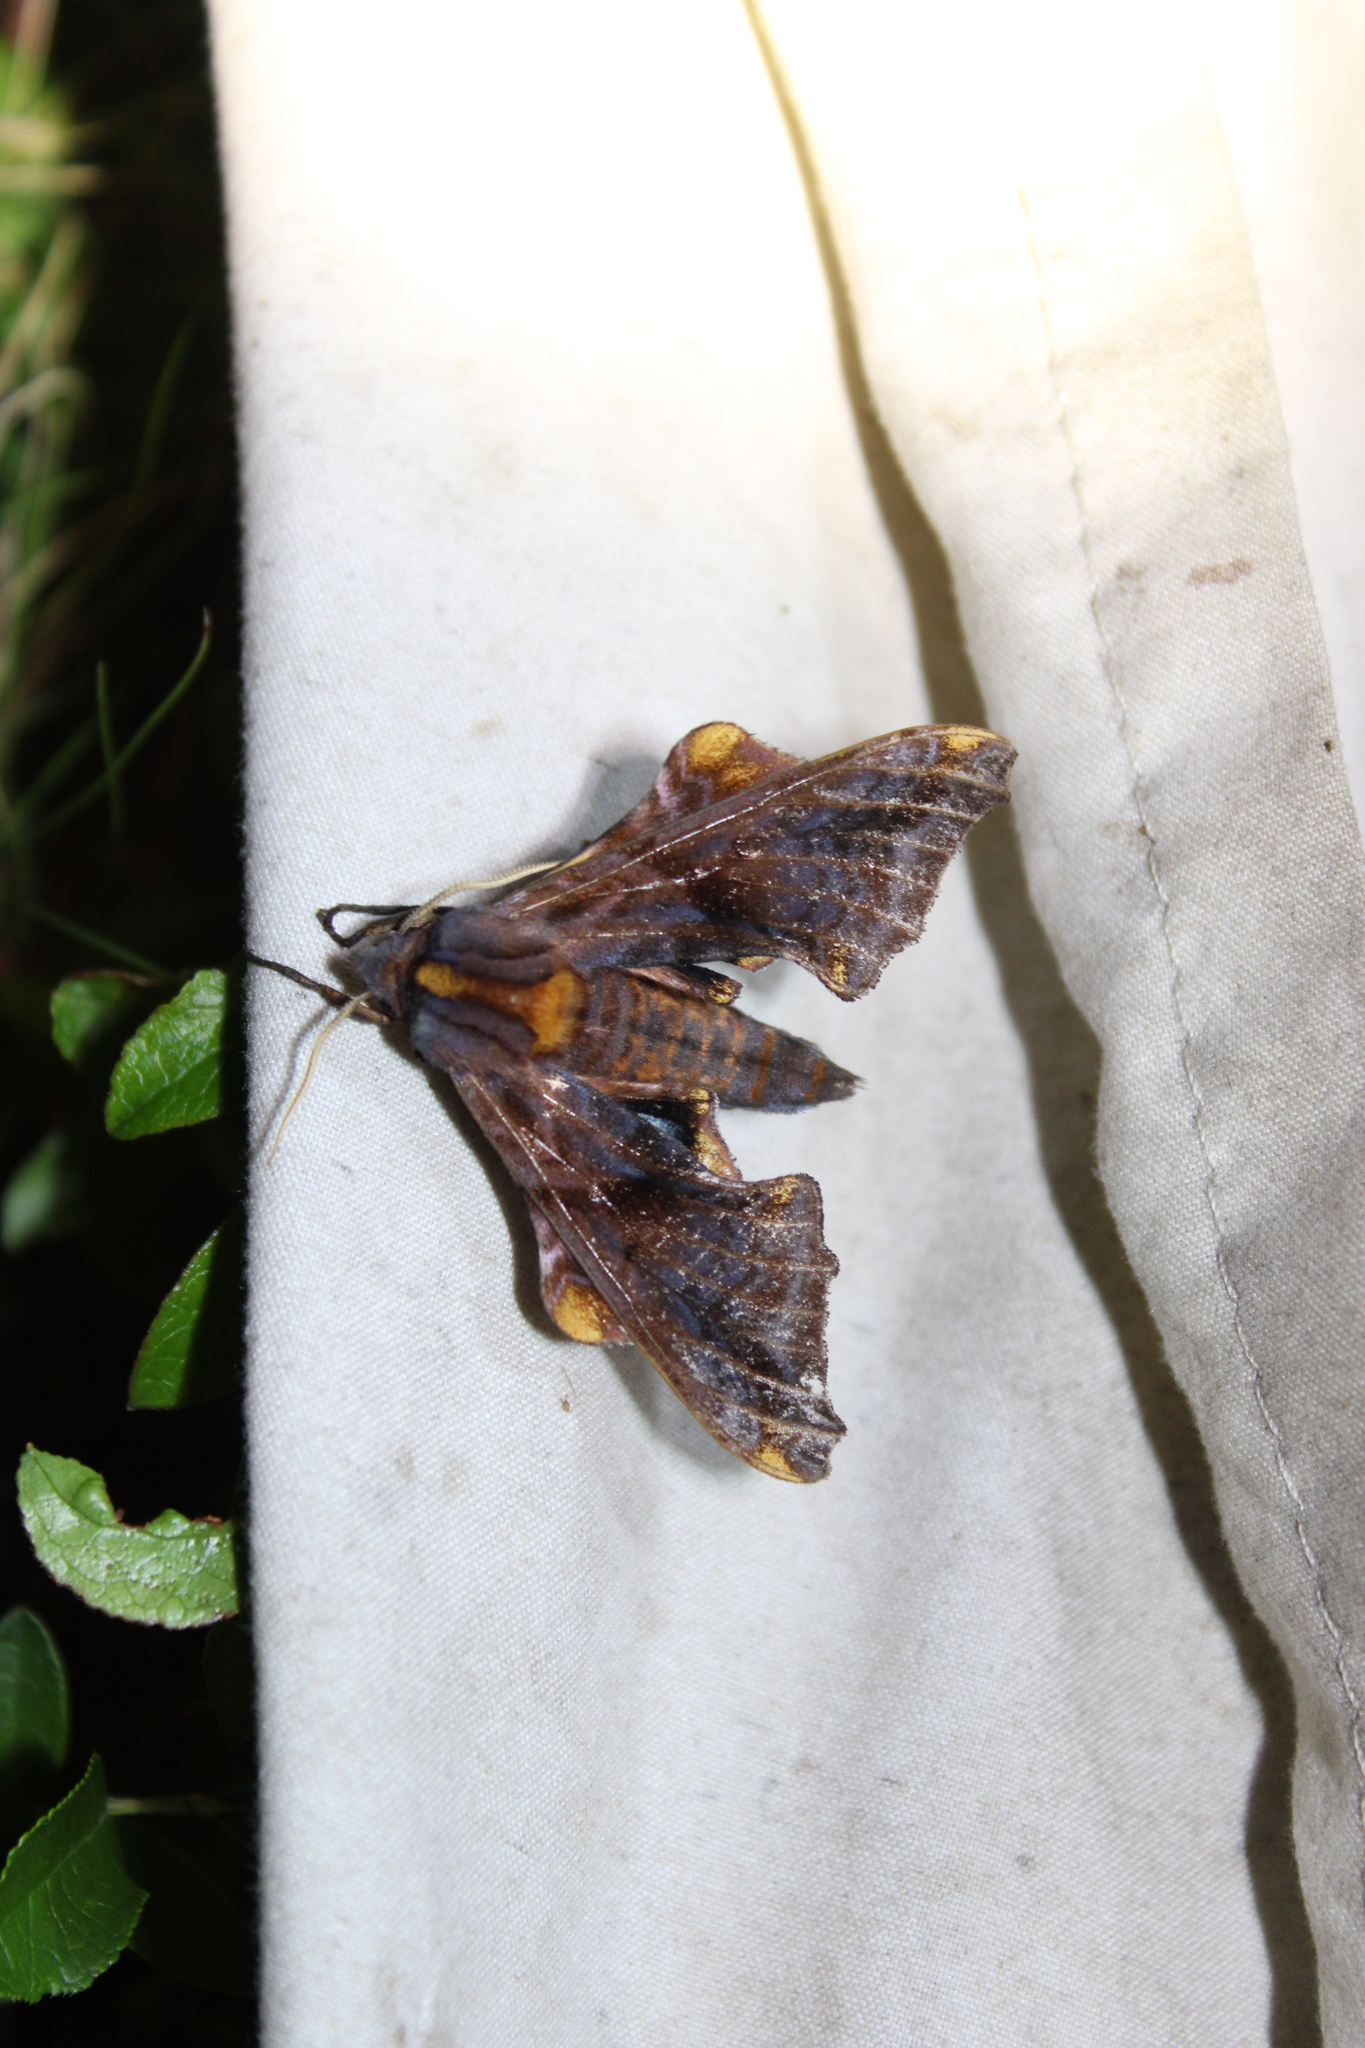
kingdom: Animalia
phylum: Arthropoda
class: Insecta
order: Lepidoptera
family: Sphingidae
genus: Paonias
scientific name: Paonias myops
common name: Small-eyed sphinx
